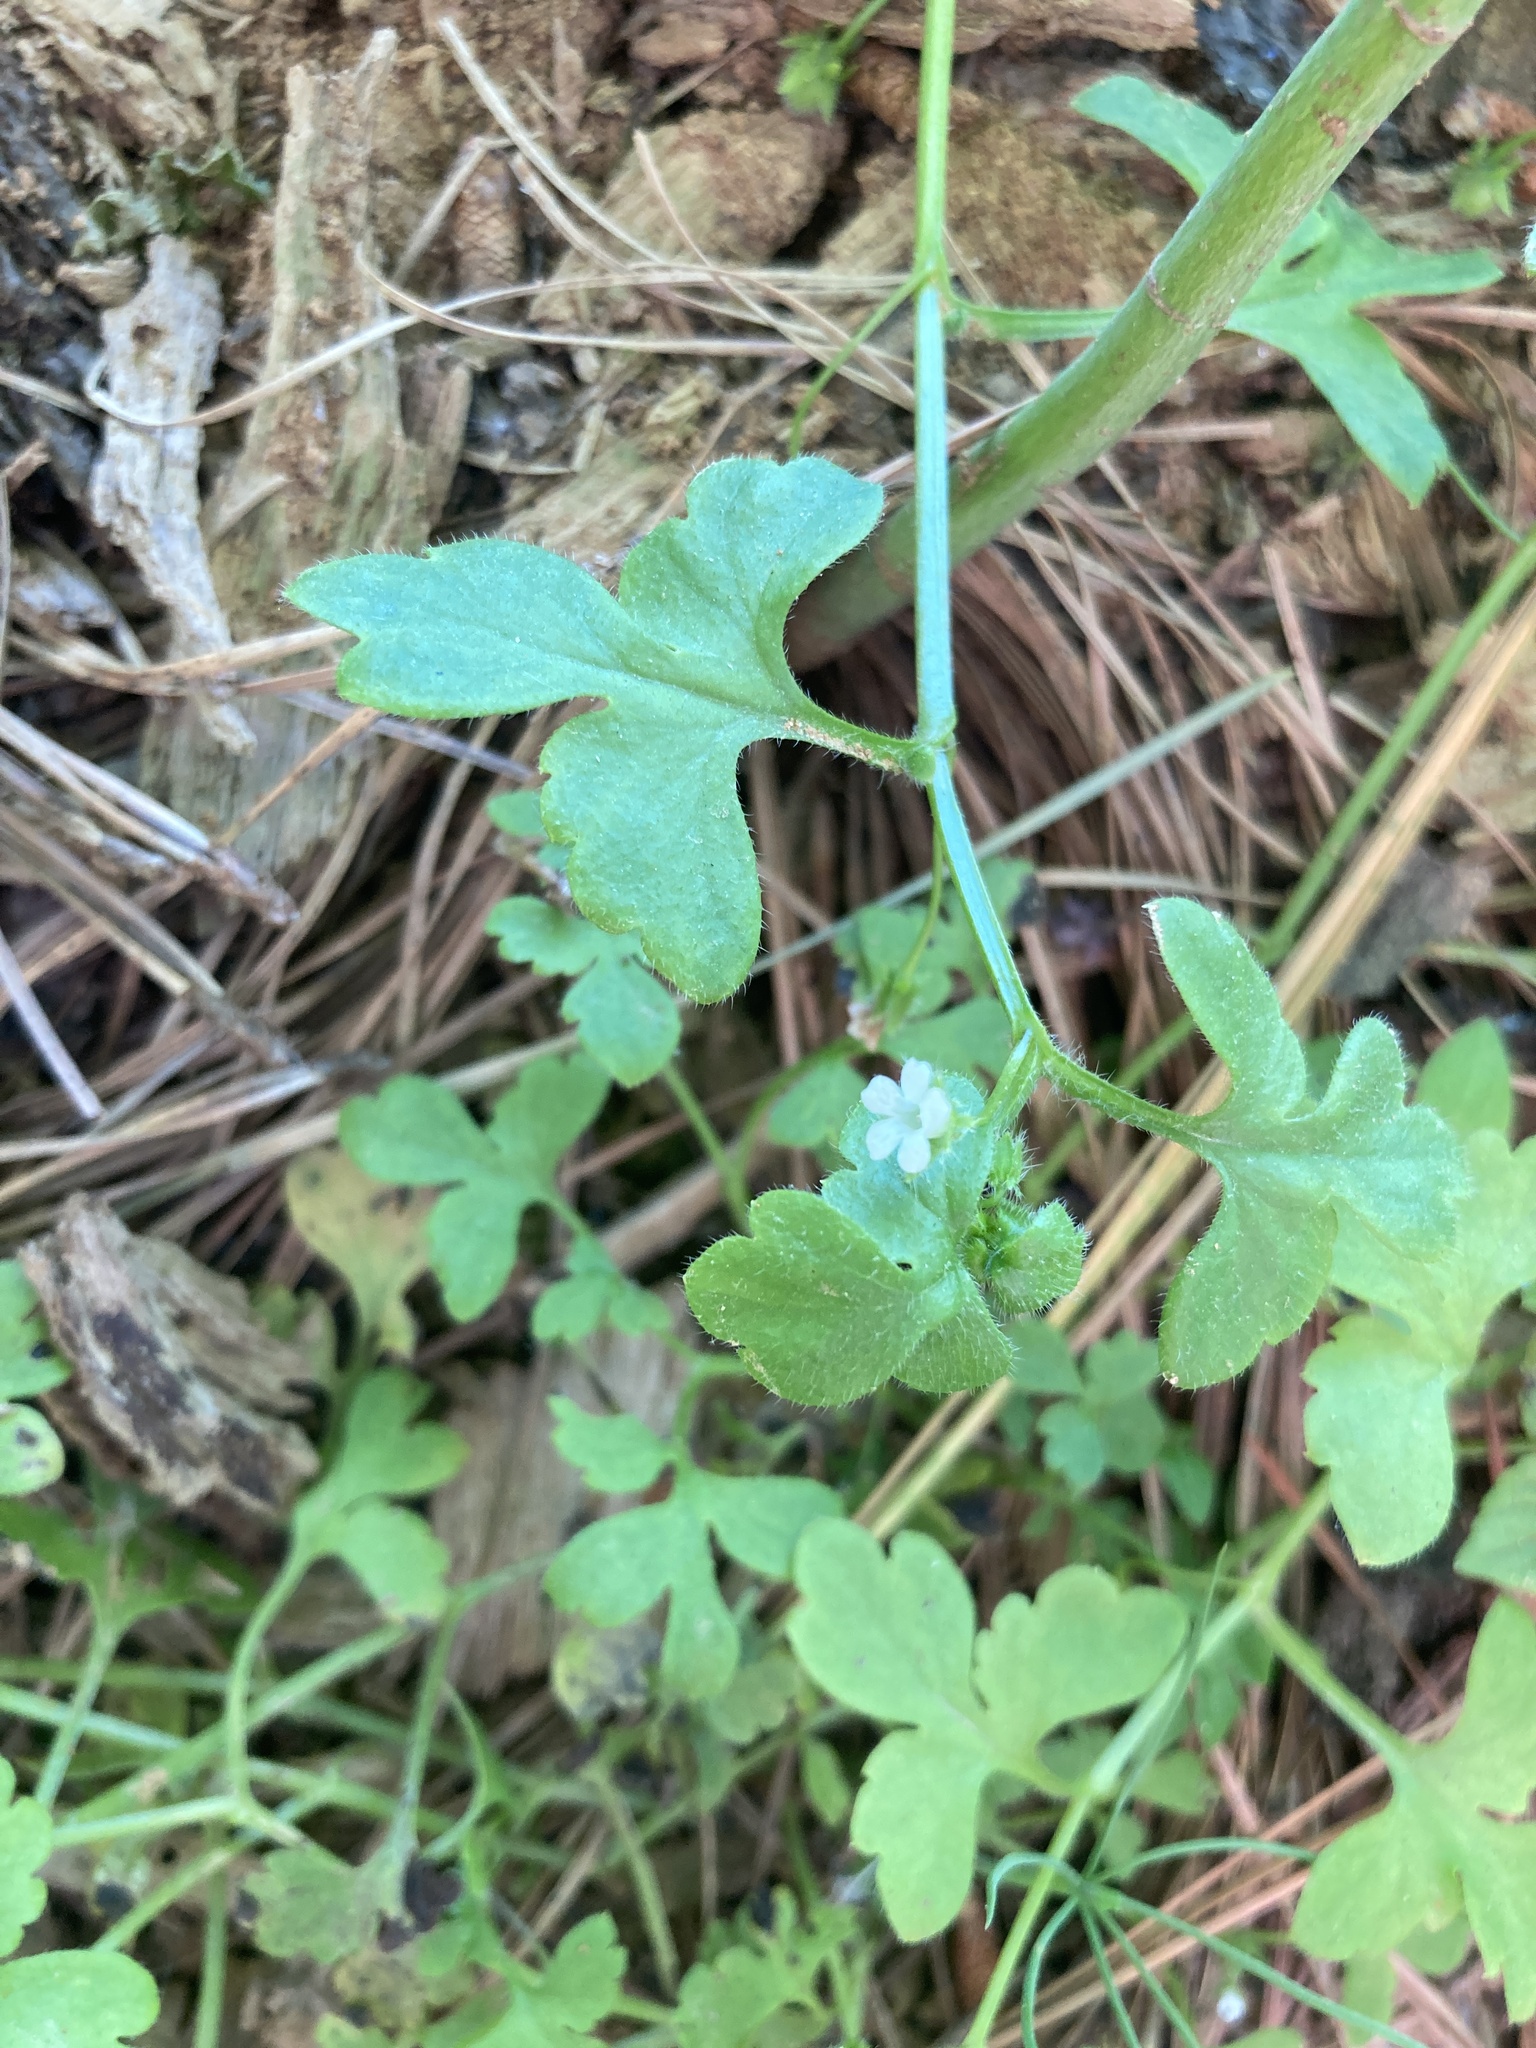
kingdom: Plantae
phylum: Tracheophyta
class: Magnoliopsida
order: Boraginales
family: Hydrophyllaceae
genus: Nemophila
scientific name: Nemophila aphylla
